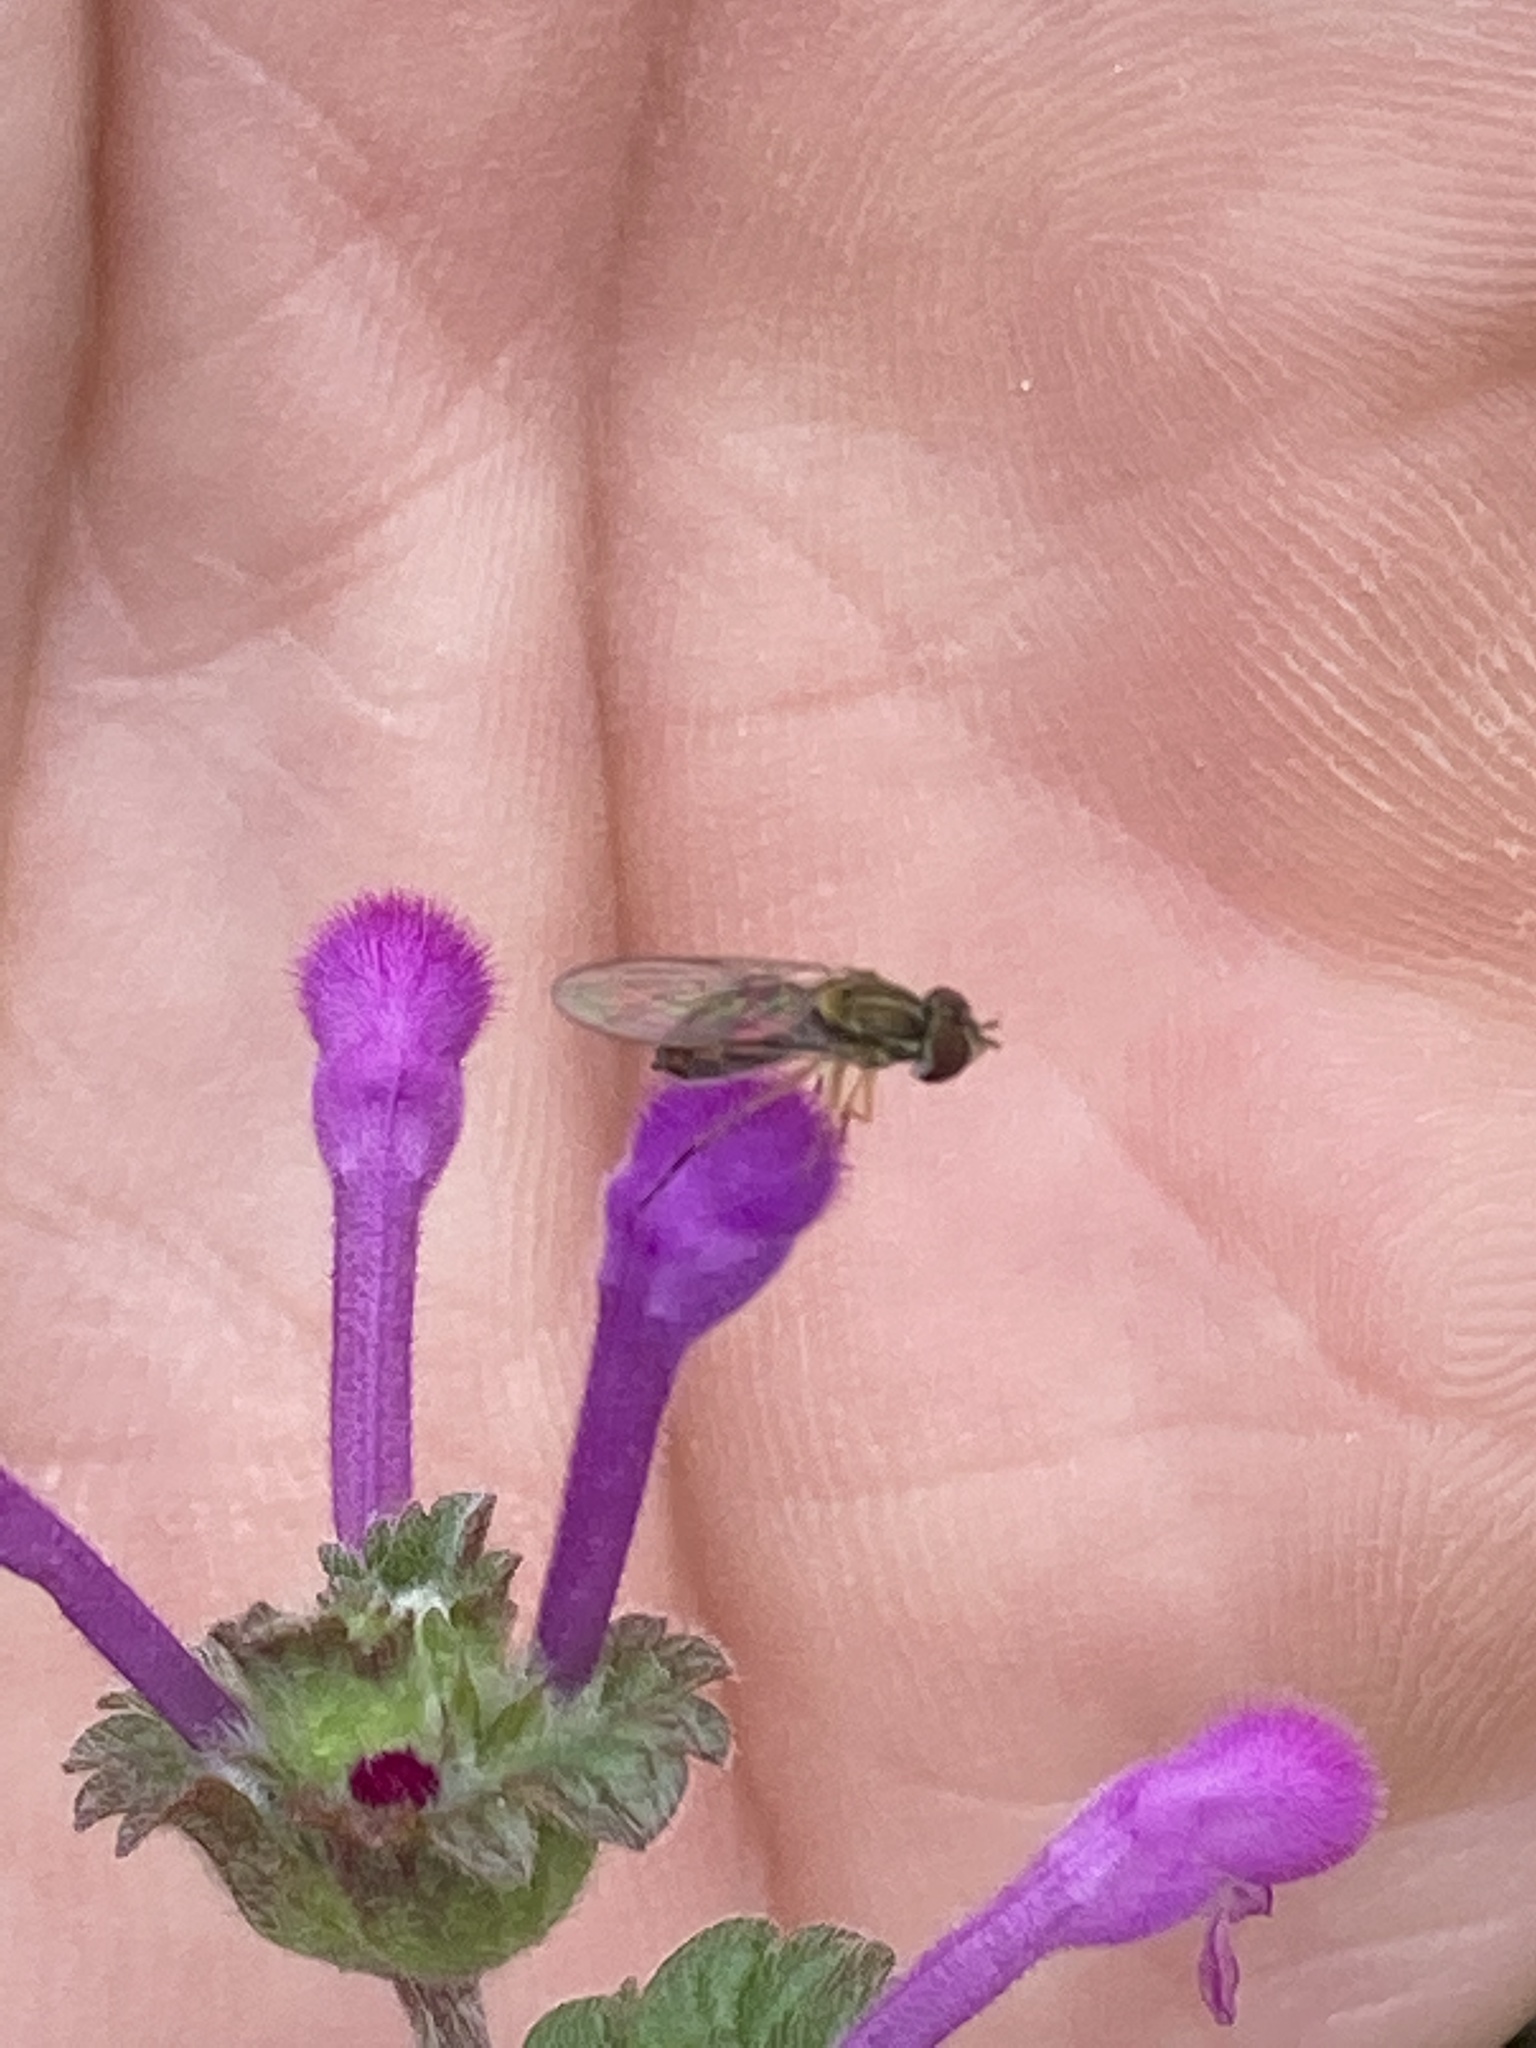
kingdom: Animalia
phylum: Arthropoda
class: Insecta
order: Diptera
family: Syrphidae
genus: Toxomerus
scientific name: Toxomerus marginatus
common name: Syrphid fly
